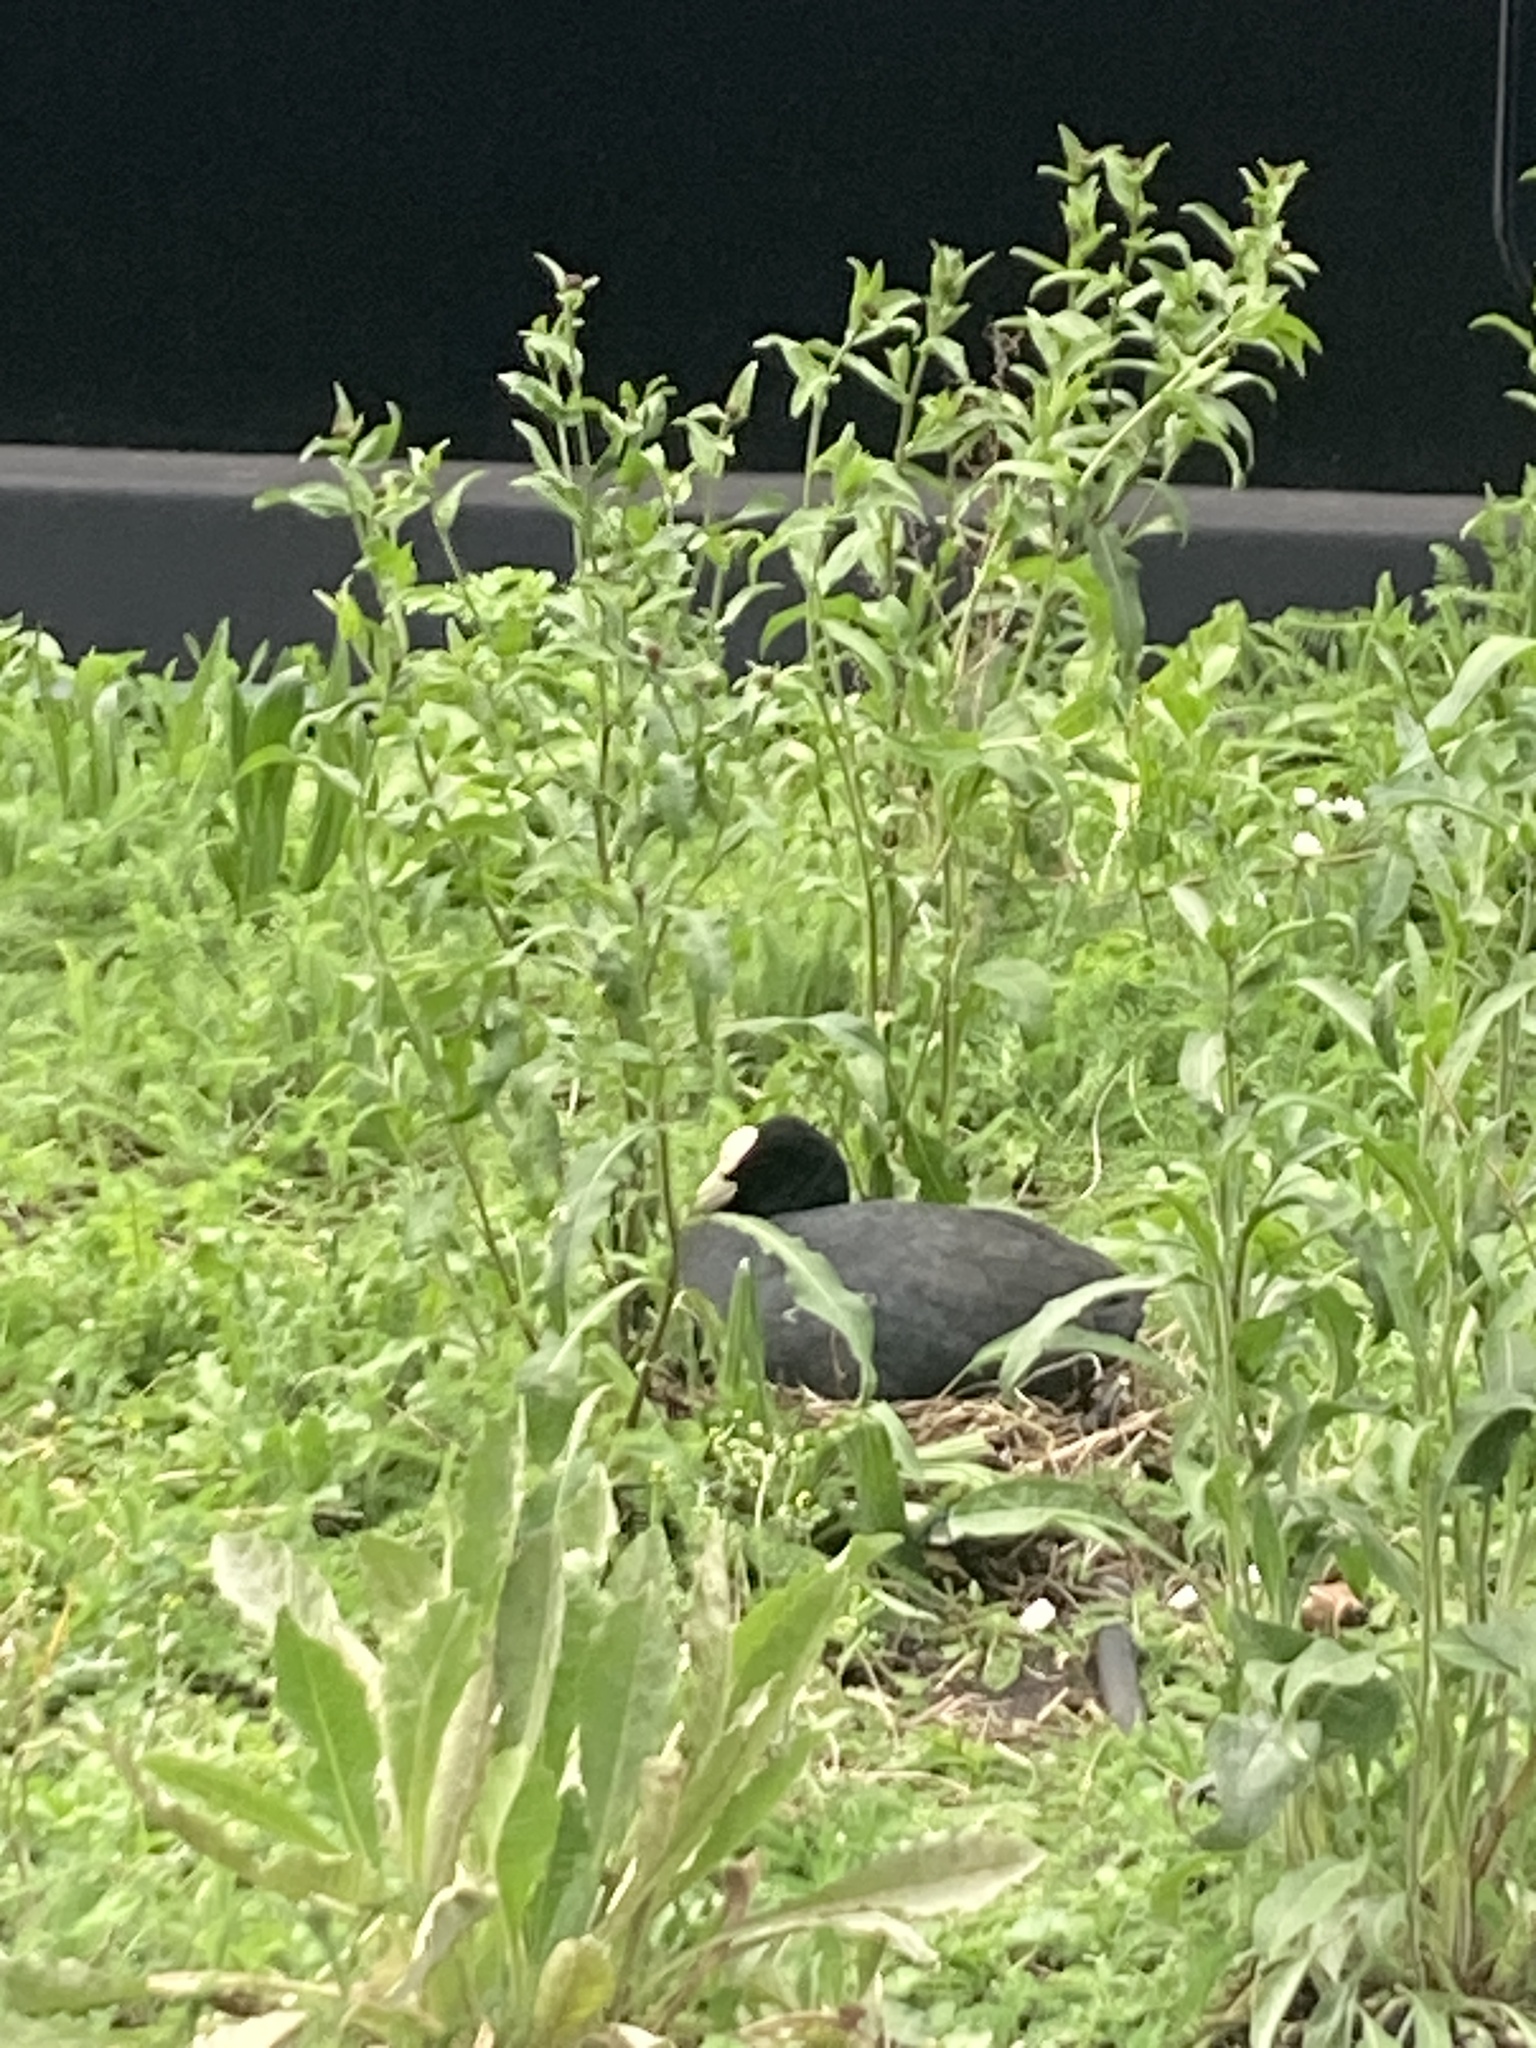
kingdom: Animalia
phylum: Chordata
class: Aves
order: Gruiformes
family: Rallidae
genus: Fulica
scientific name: Fulica atra
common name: Eurasian coot
